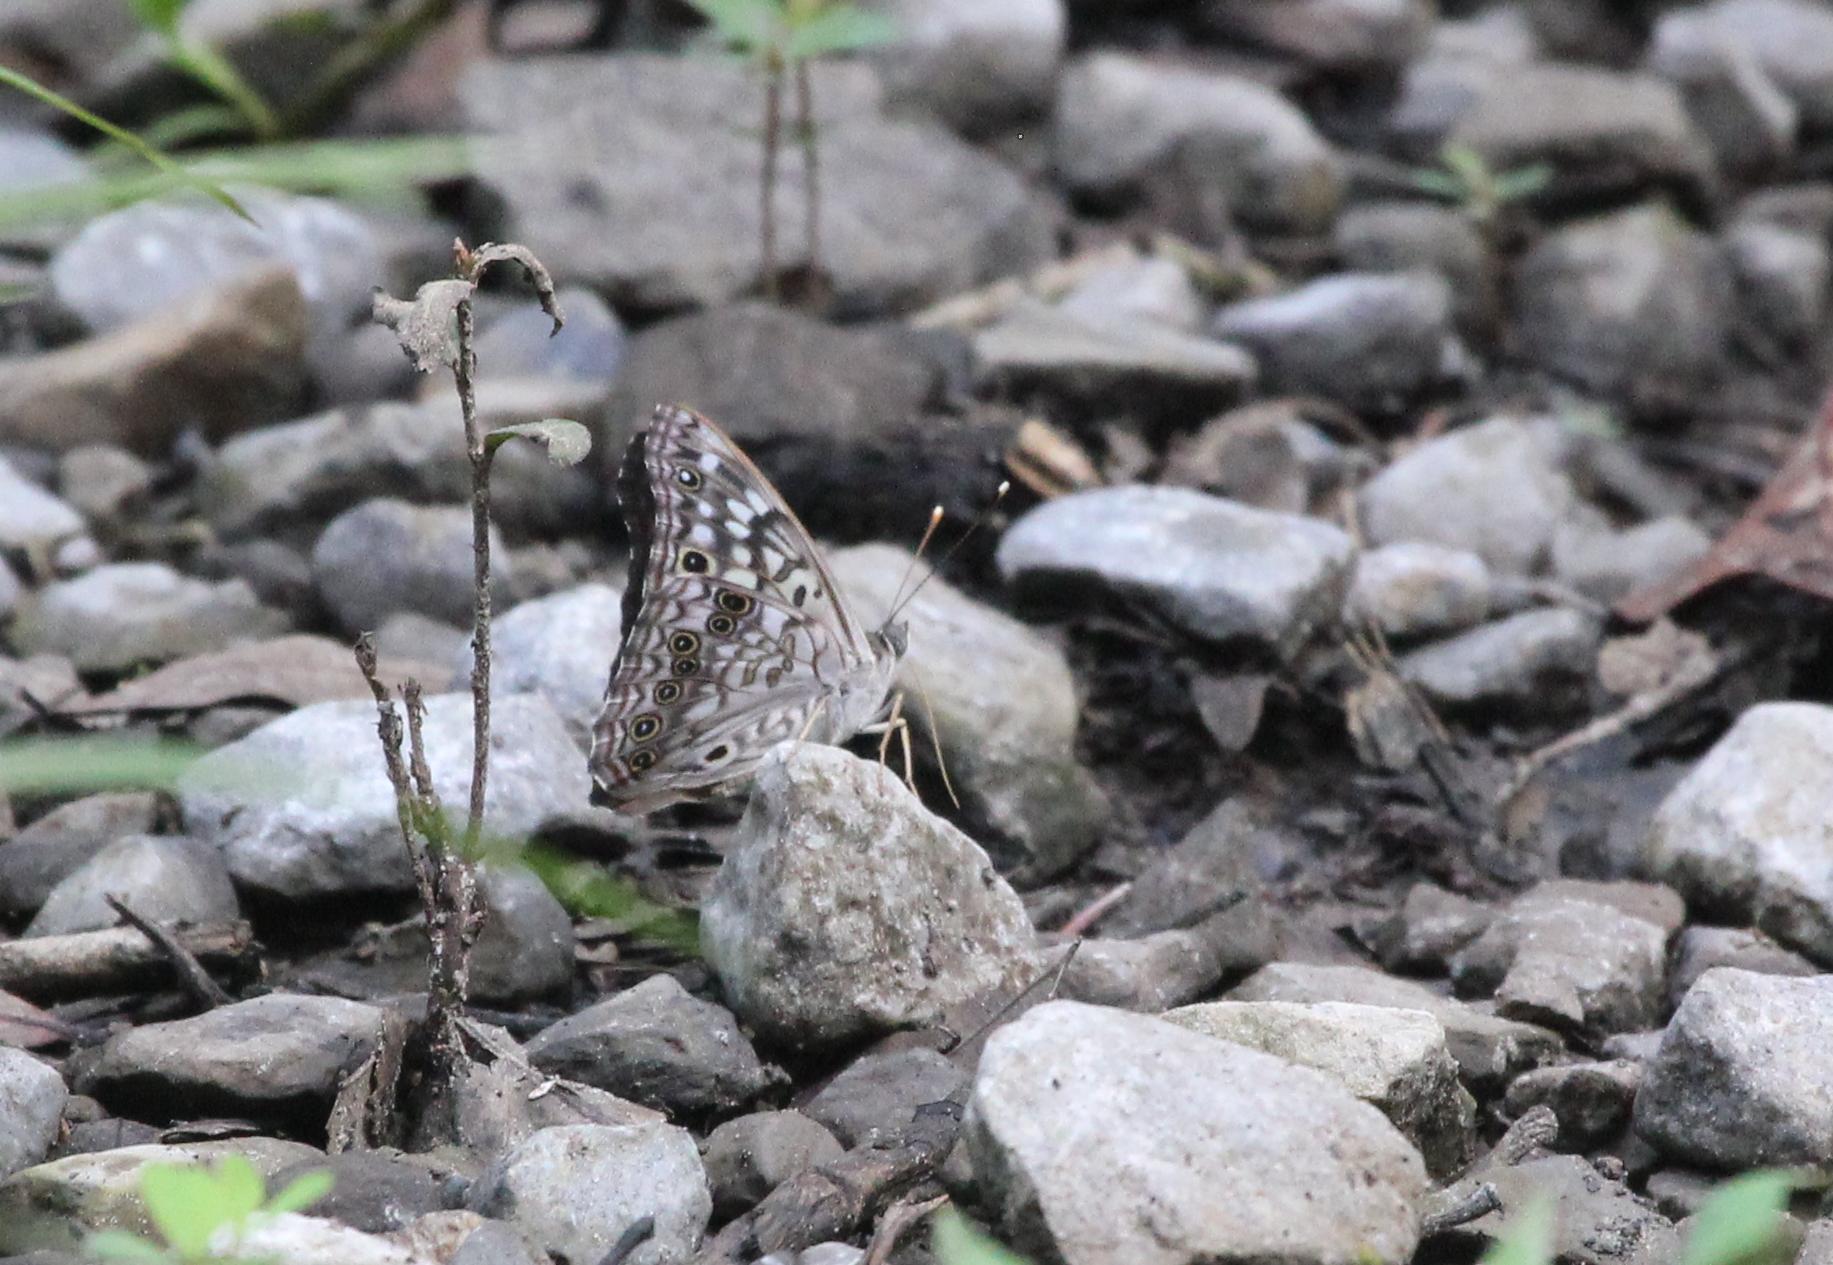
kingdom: Animalia
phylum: Arthropoda
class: Insecta
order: Lepidoptera
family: Nymphalidae
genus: Asterocampa
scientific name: Asterocampa celtis
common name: Hackberry emperor
